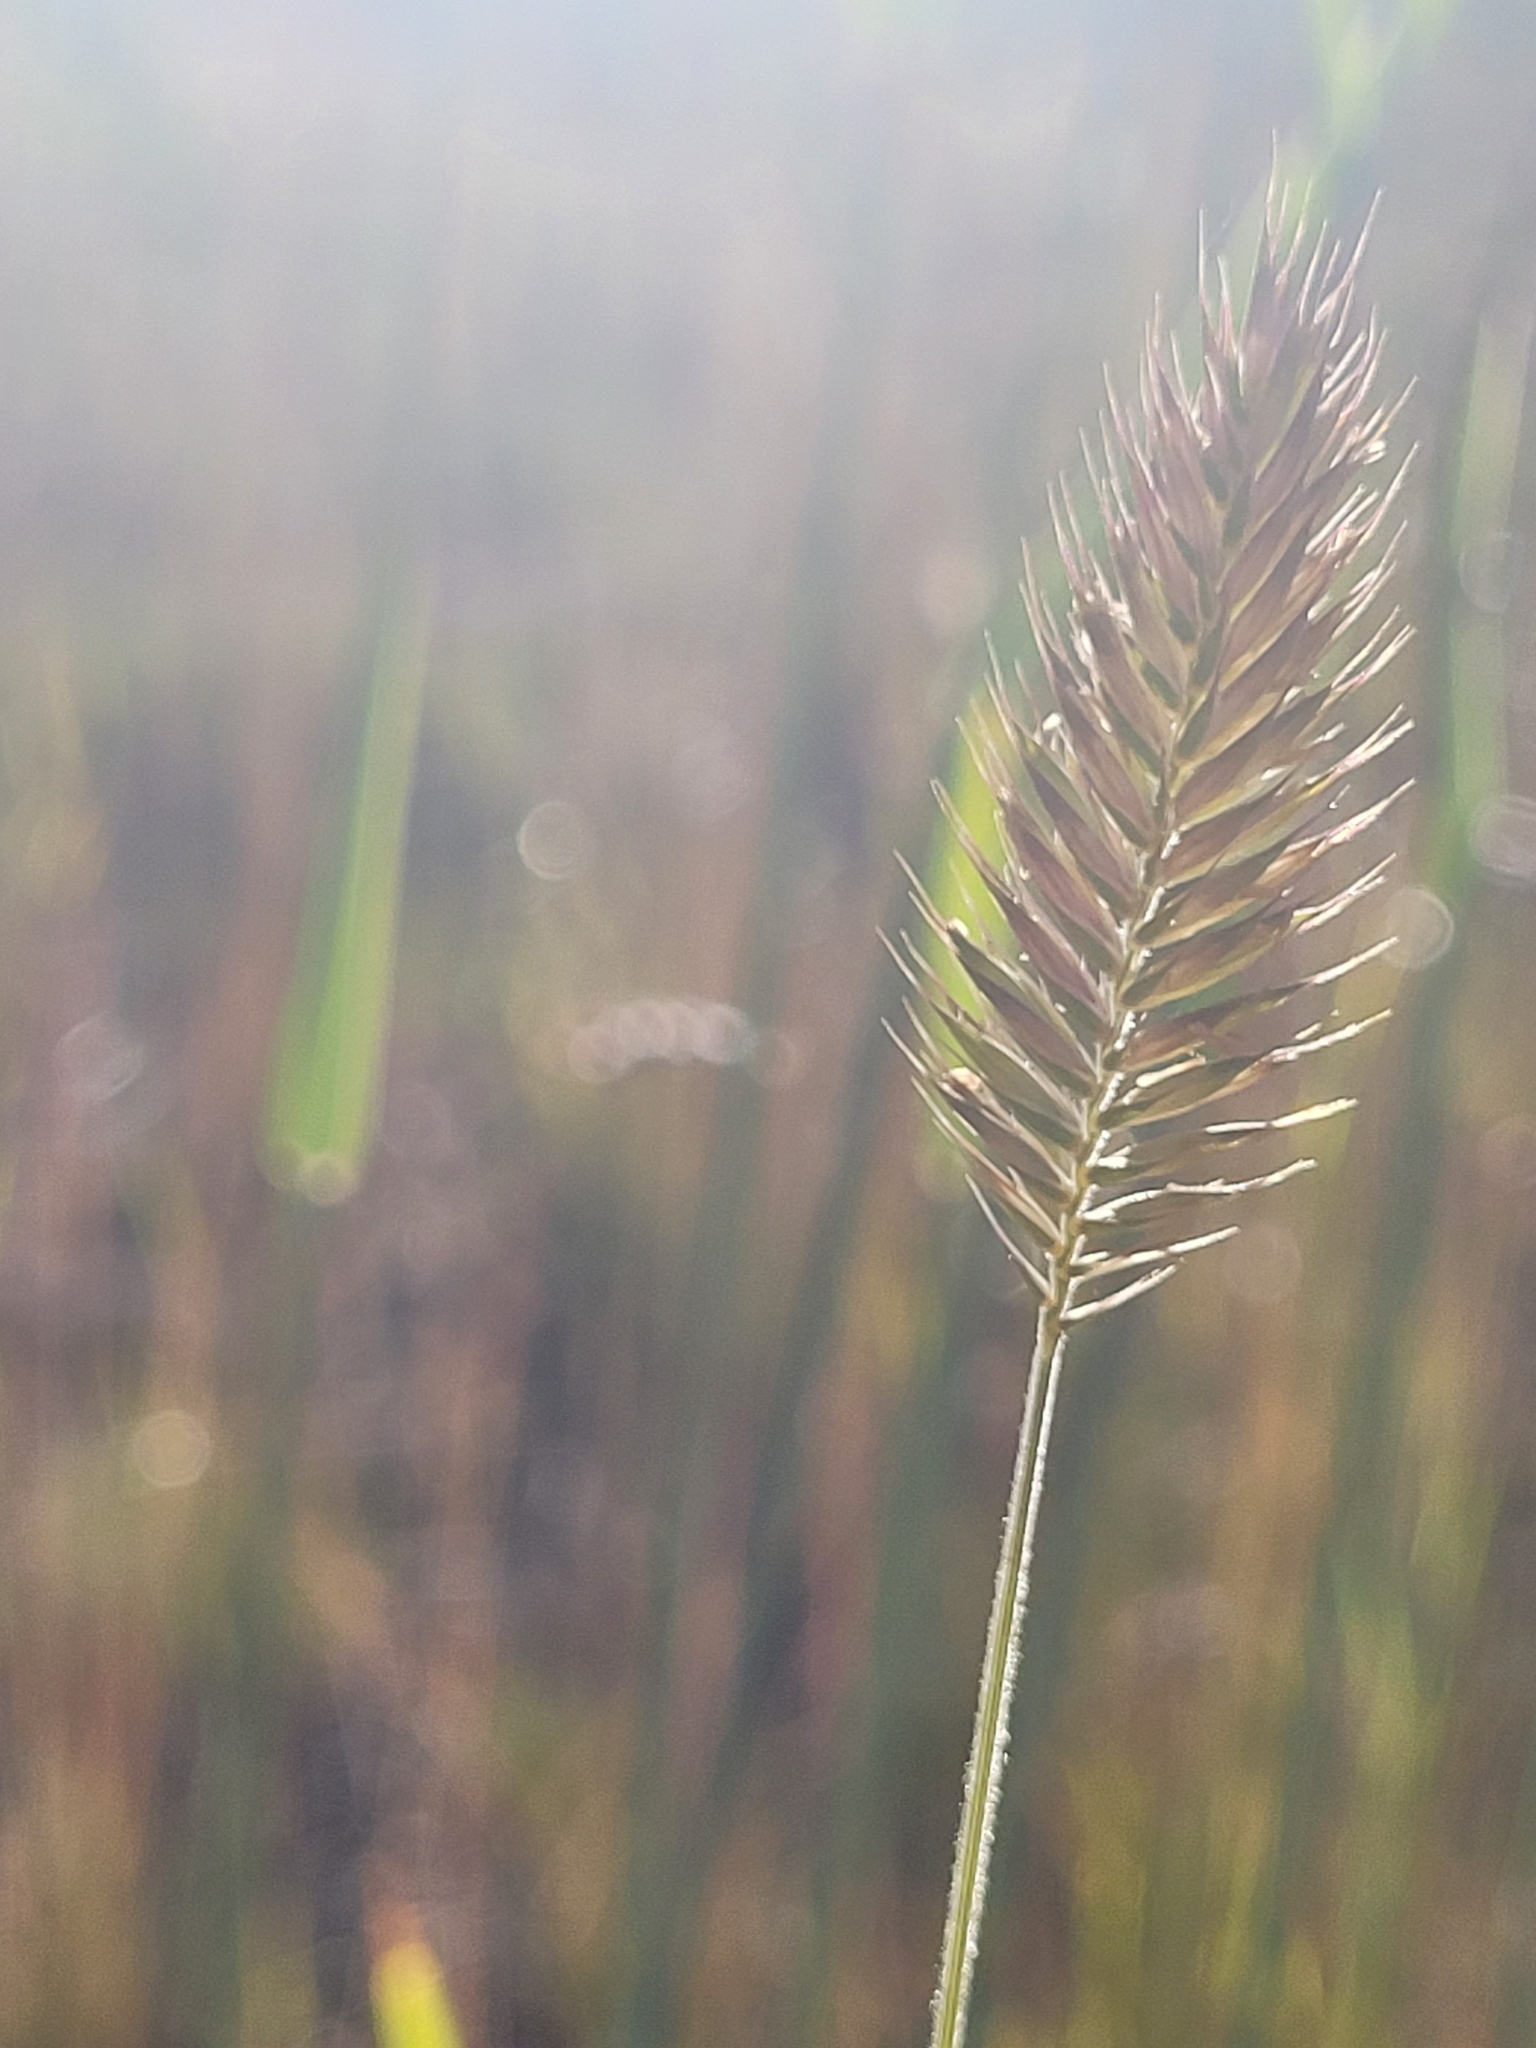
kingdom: Plantae
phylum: Tracheophyta
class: Liliopsida
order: Poales
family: Poaceae
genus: Agropyron
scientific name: Agropyron cristatum
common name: Crested wheatgrass
